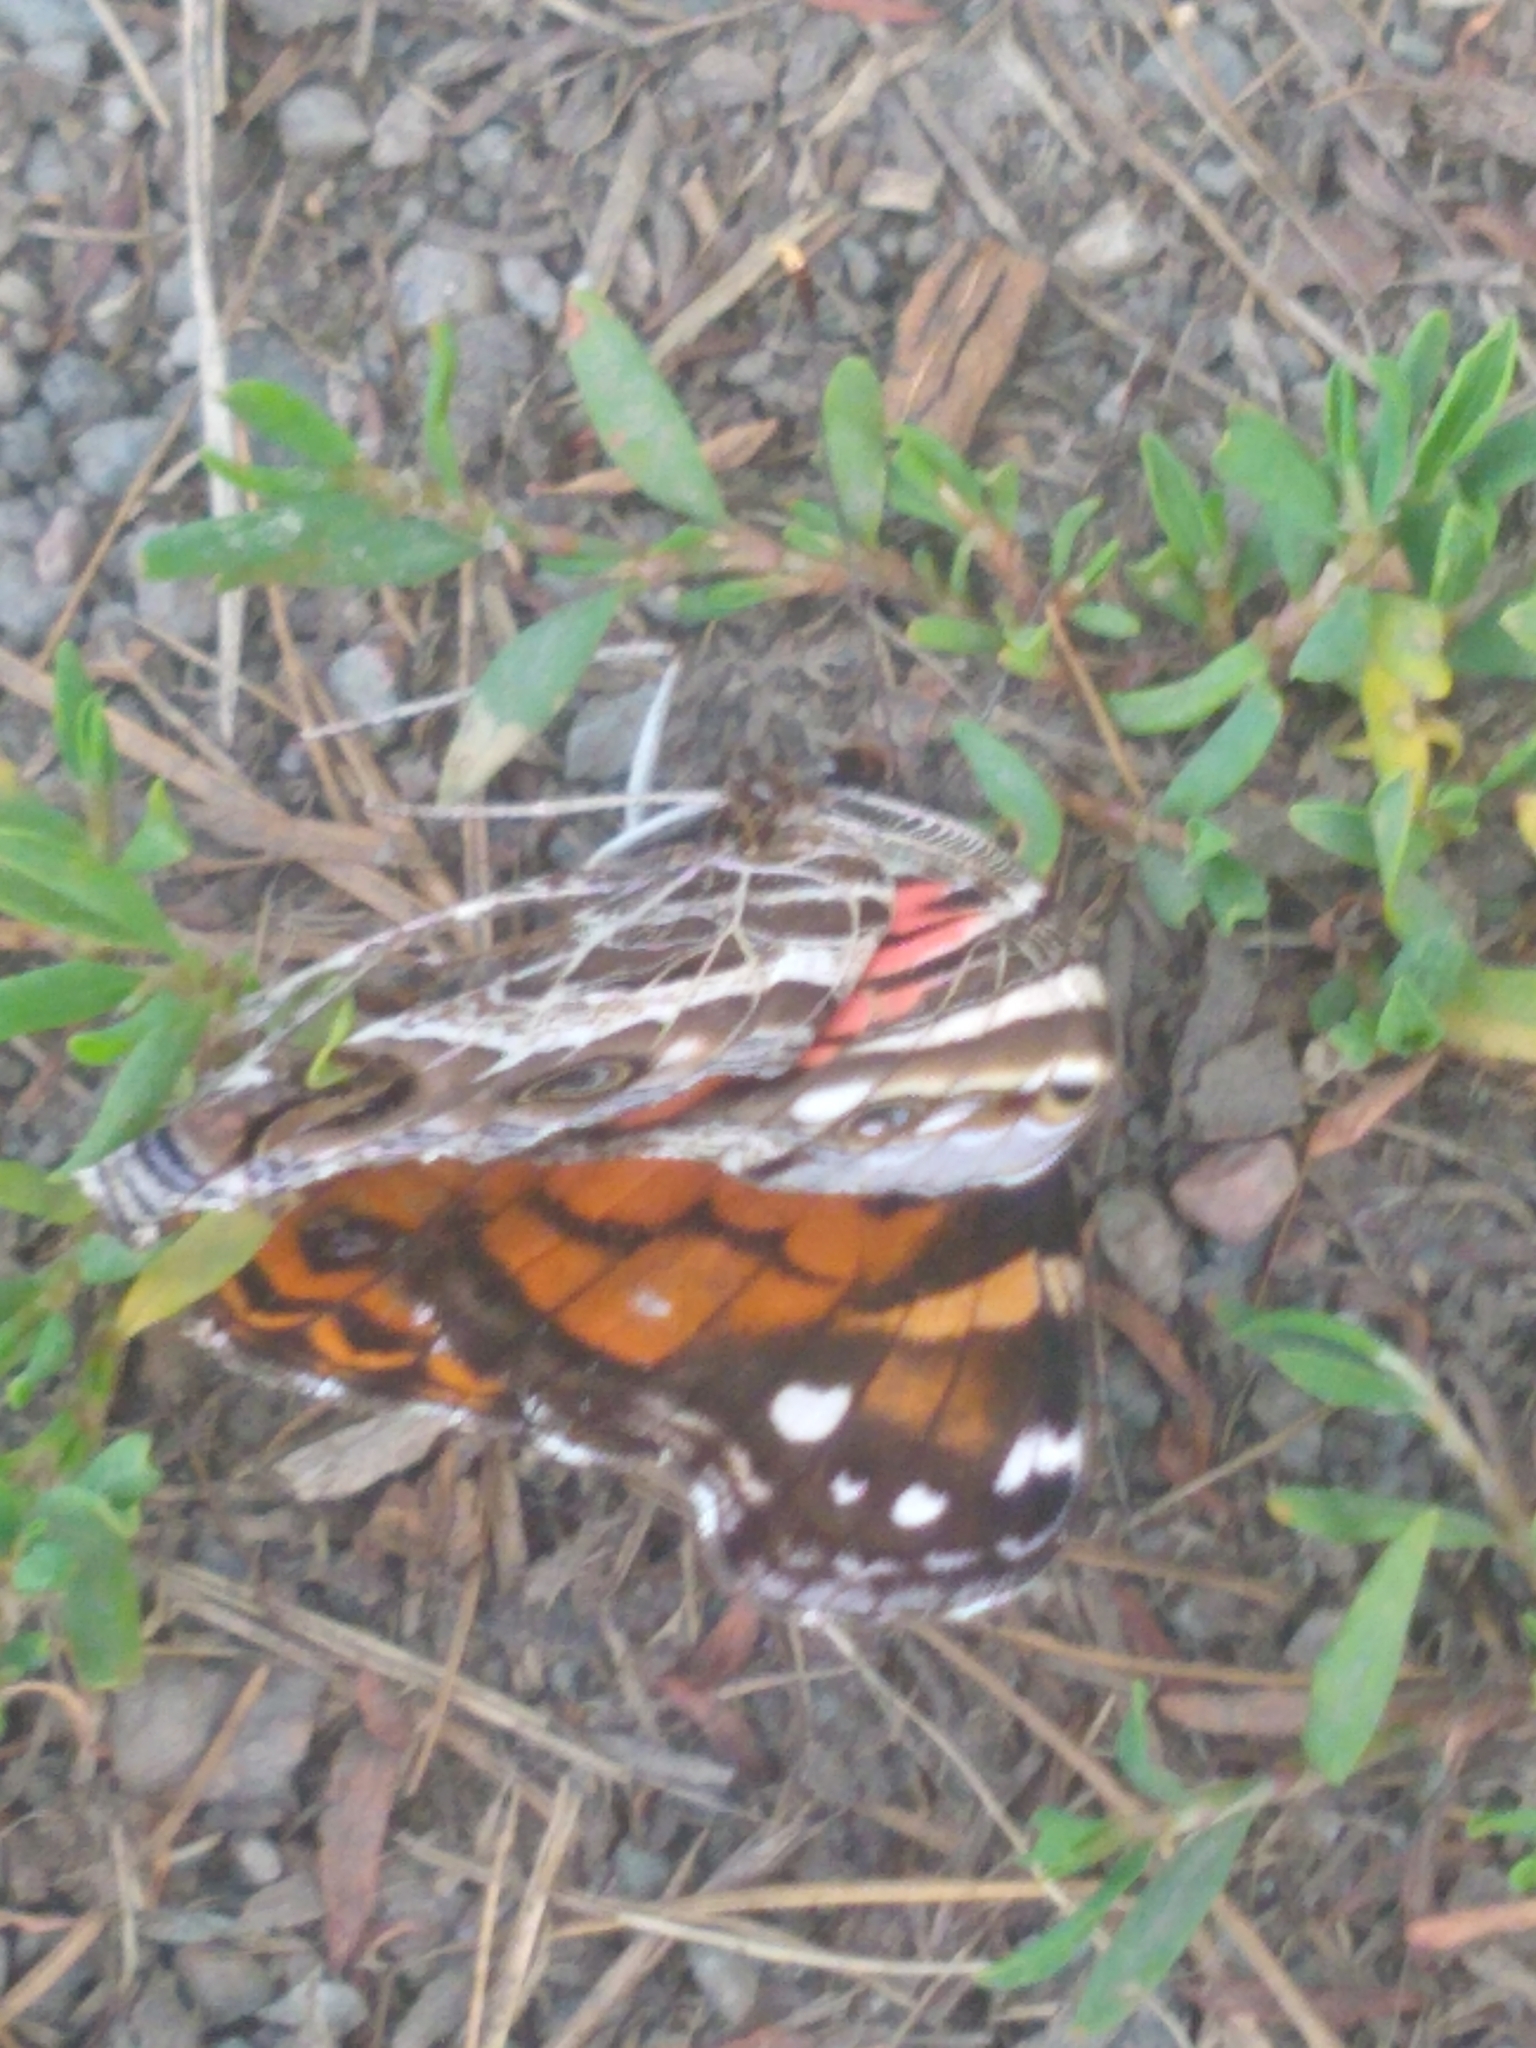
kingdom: Animalia
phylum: Arthropoda
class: Insecta
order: Lepidoptera
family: Nymphalidae
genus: Vanessa
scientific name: Vanessa virginiensis
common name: American lady
